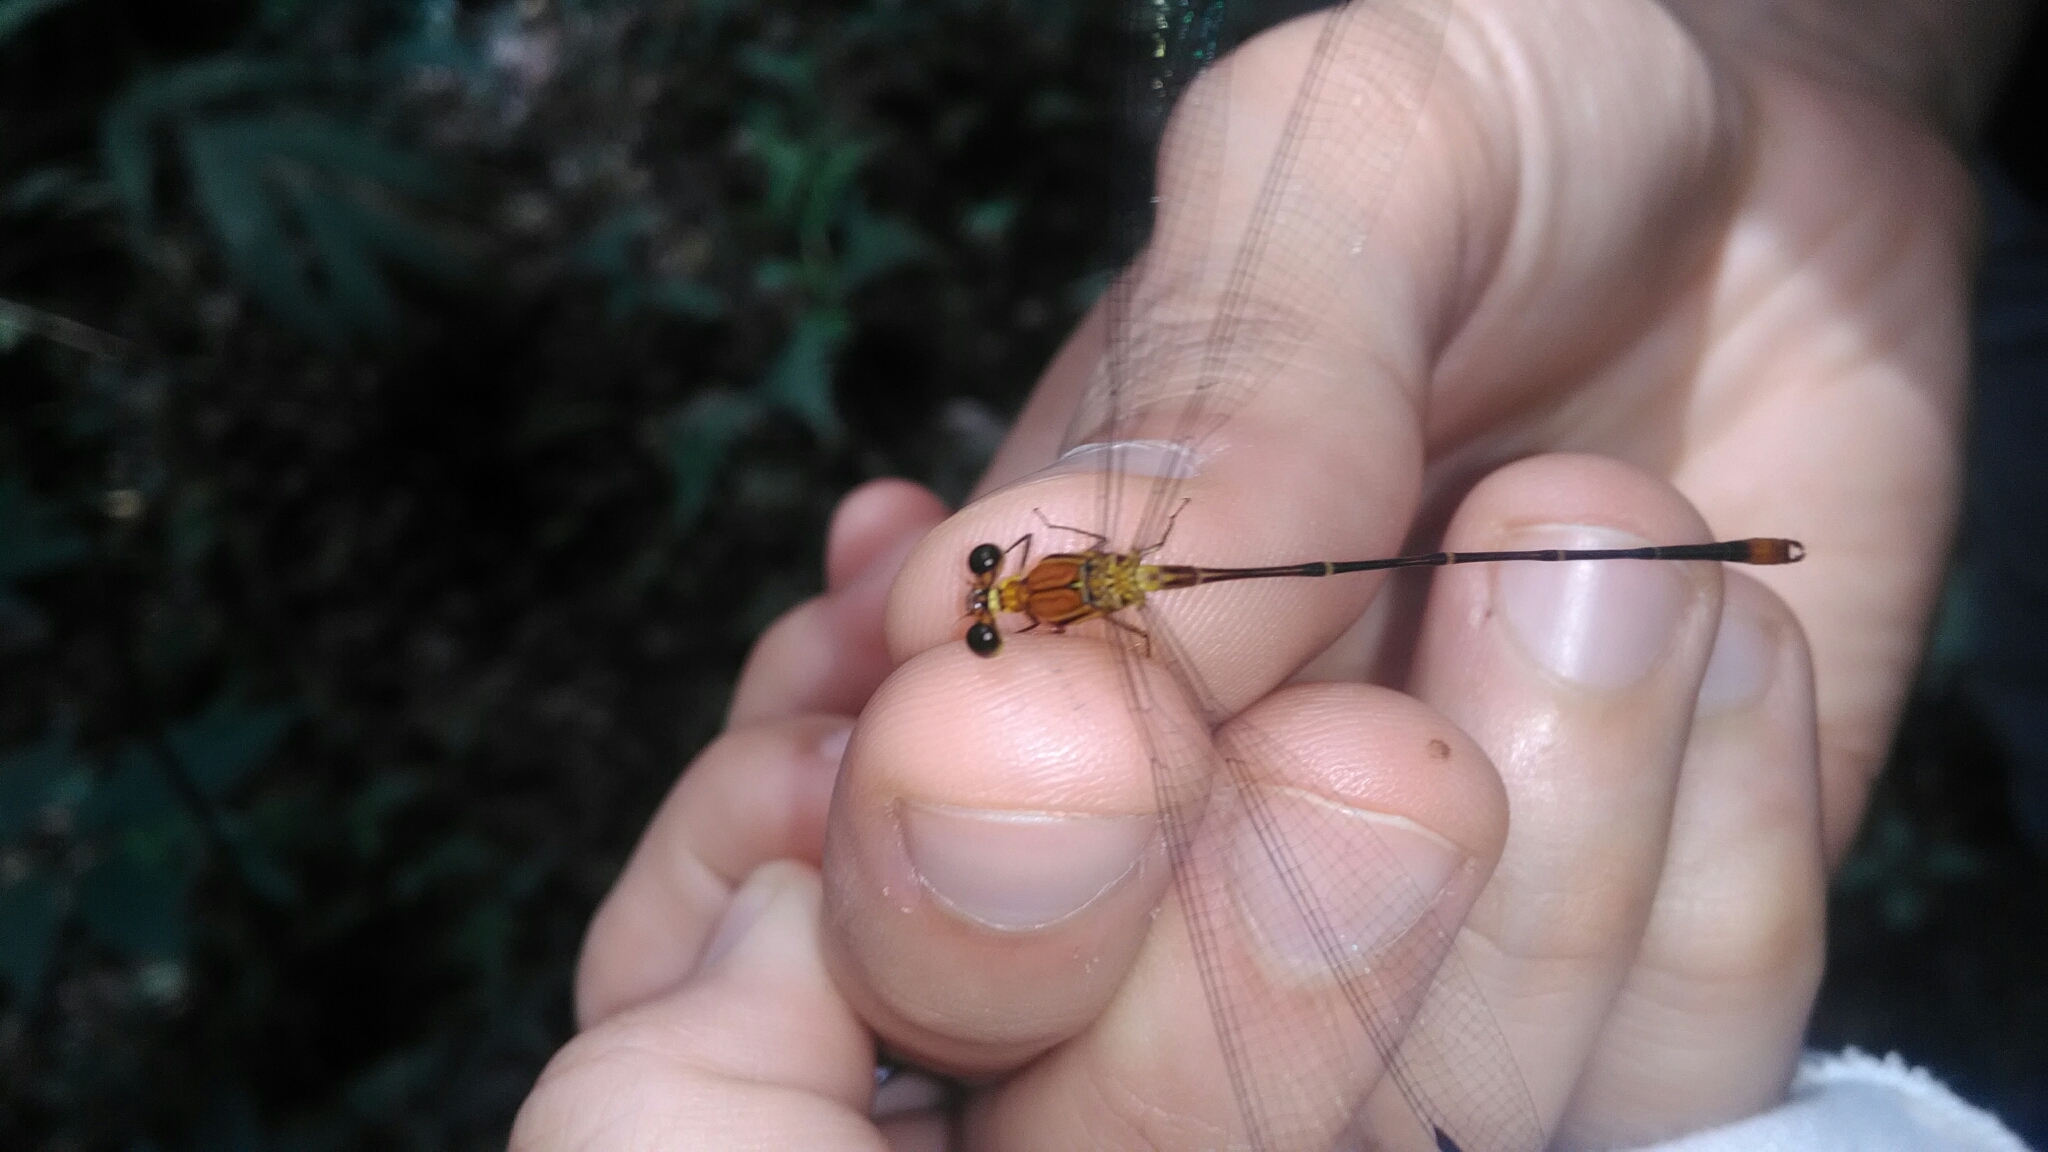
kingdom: Animalia
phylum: Arthropoda
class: Insecta
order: Odonata
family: Heteragrionidae
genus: Heteragrion
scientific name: Heteragrion aurantiacum
